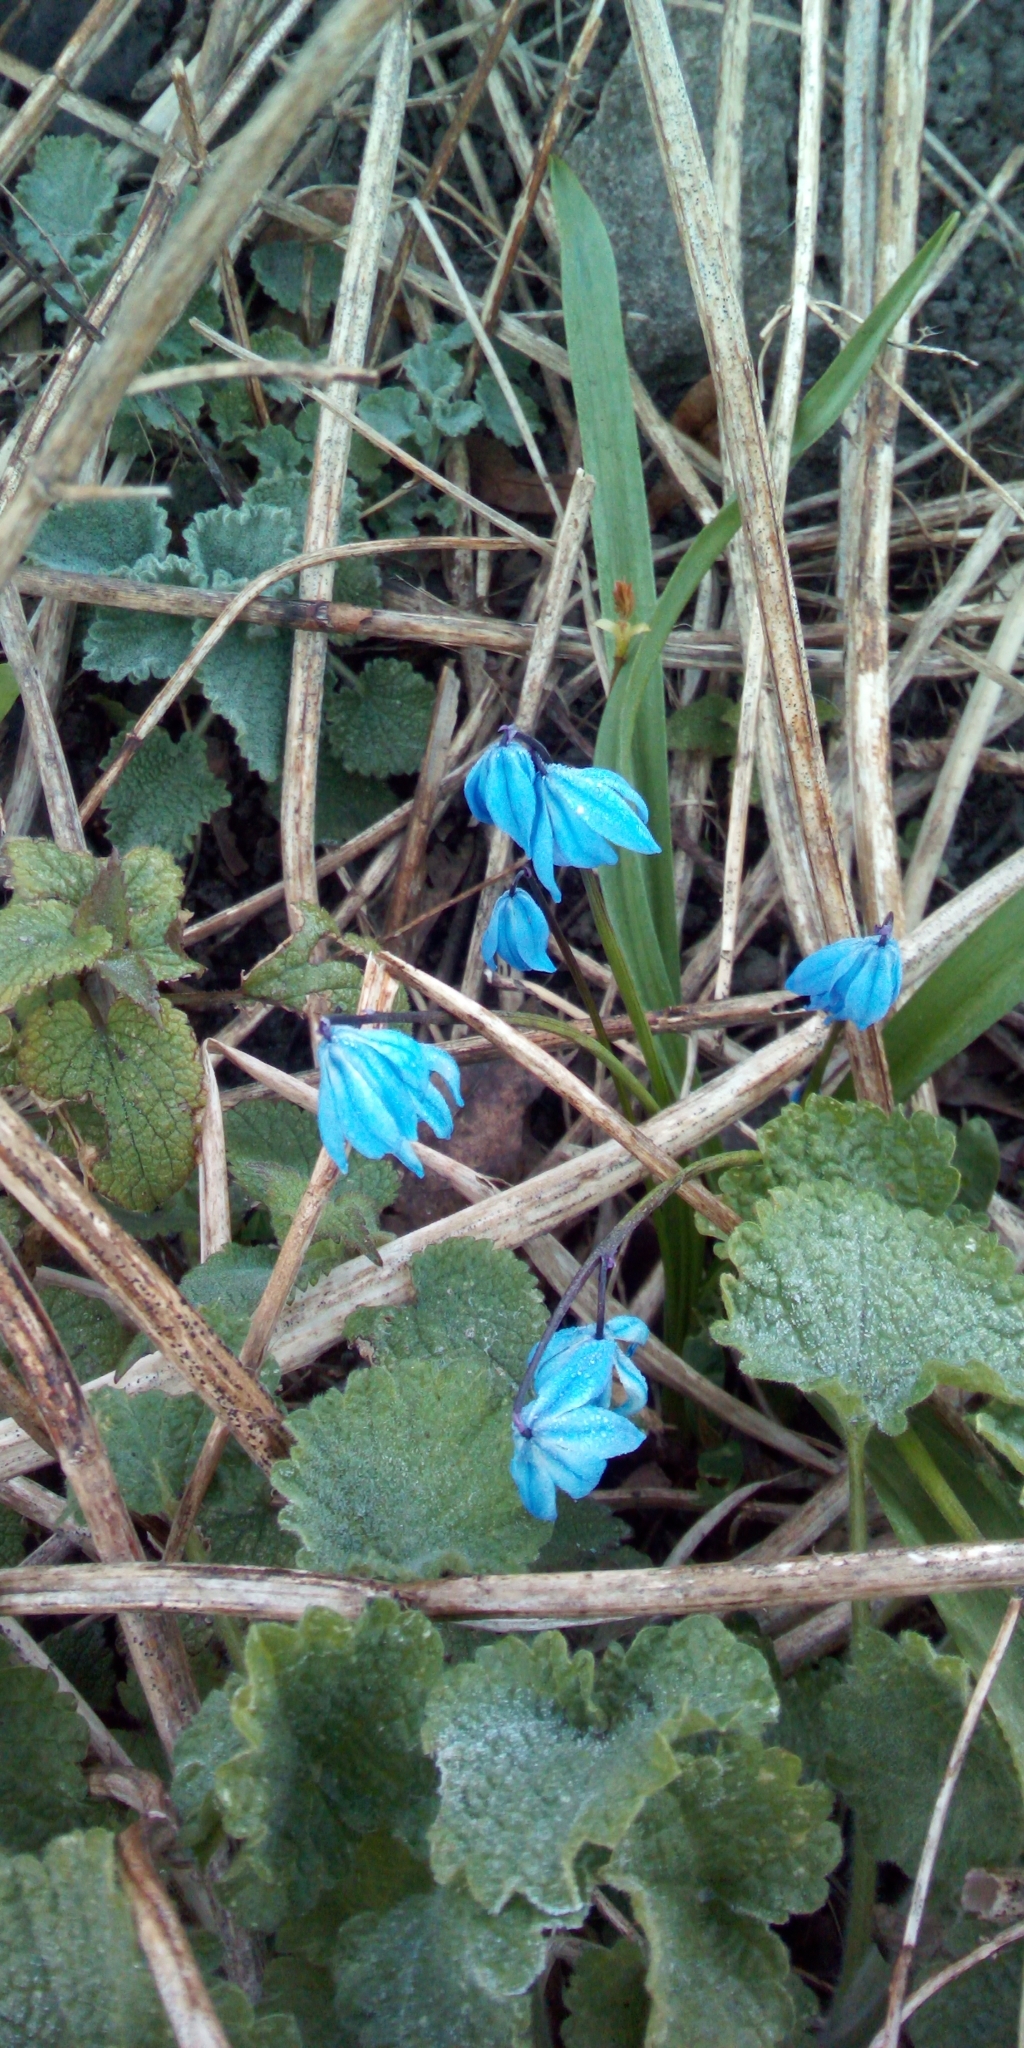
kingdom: Plantae
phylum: Tracheophyta
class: Liliopsida
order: Asparagales
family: Asparagaceae
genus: Scilla
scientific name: Scilla siberica
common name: Siberian squill
